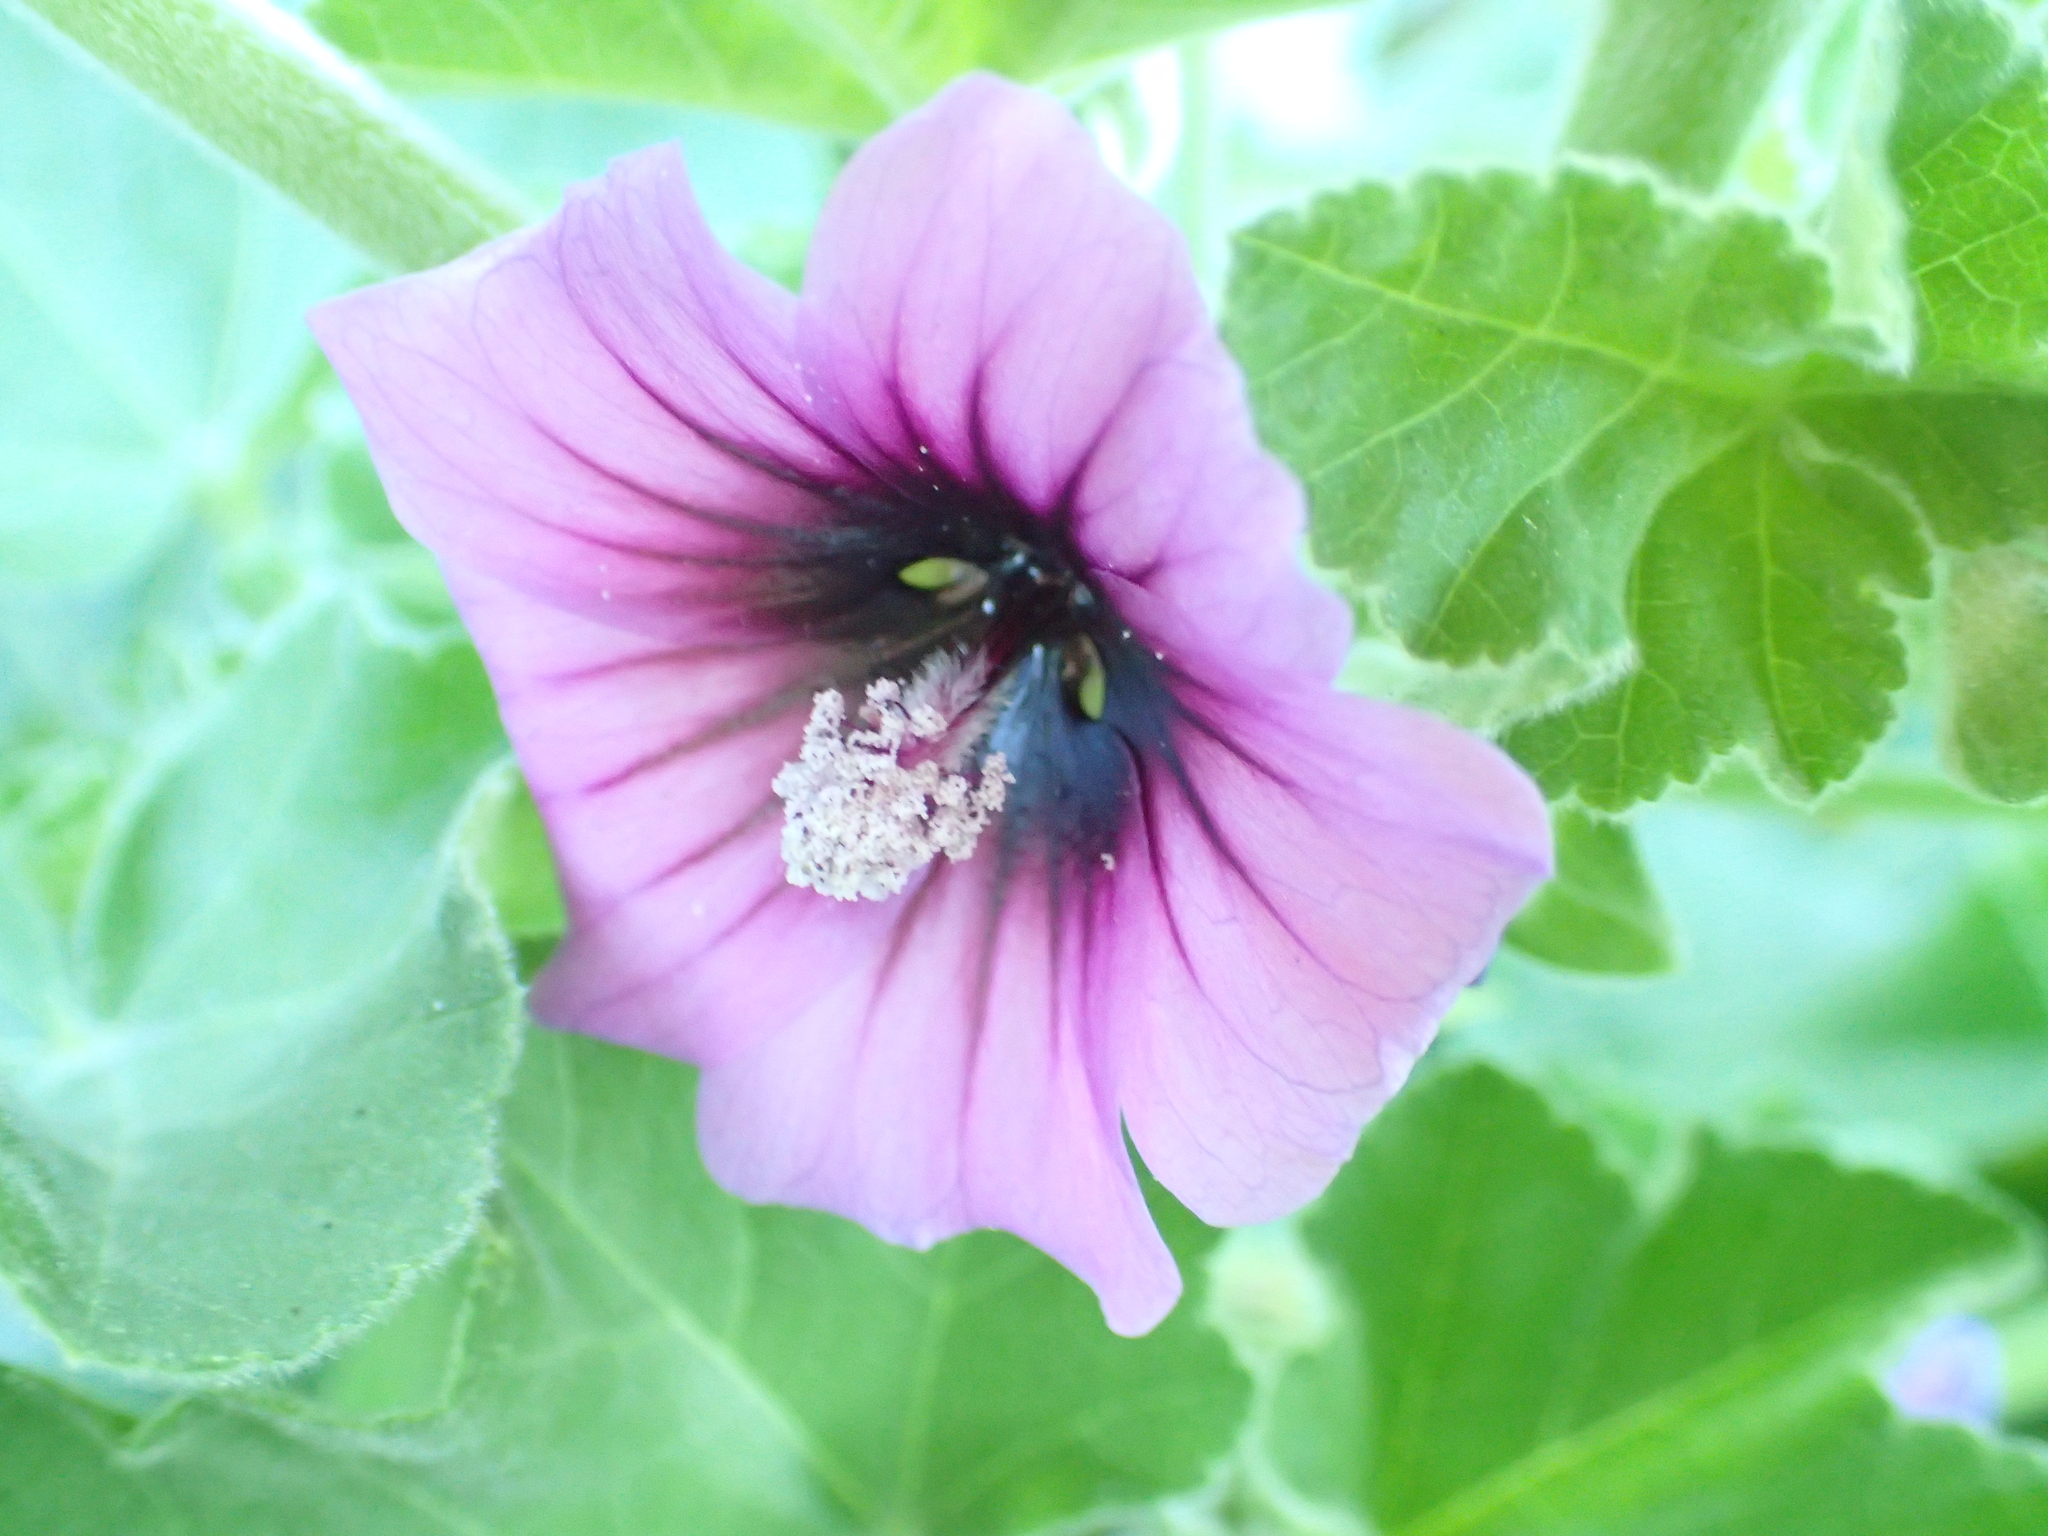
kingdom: Plantae
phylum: Tracheophyta
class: Magnoliopsida
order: Malvales
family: Malvaceae
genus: Malva
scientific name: Malva arborea
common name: Tree mallow
